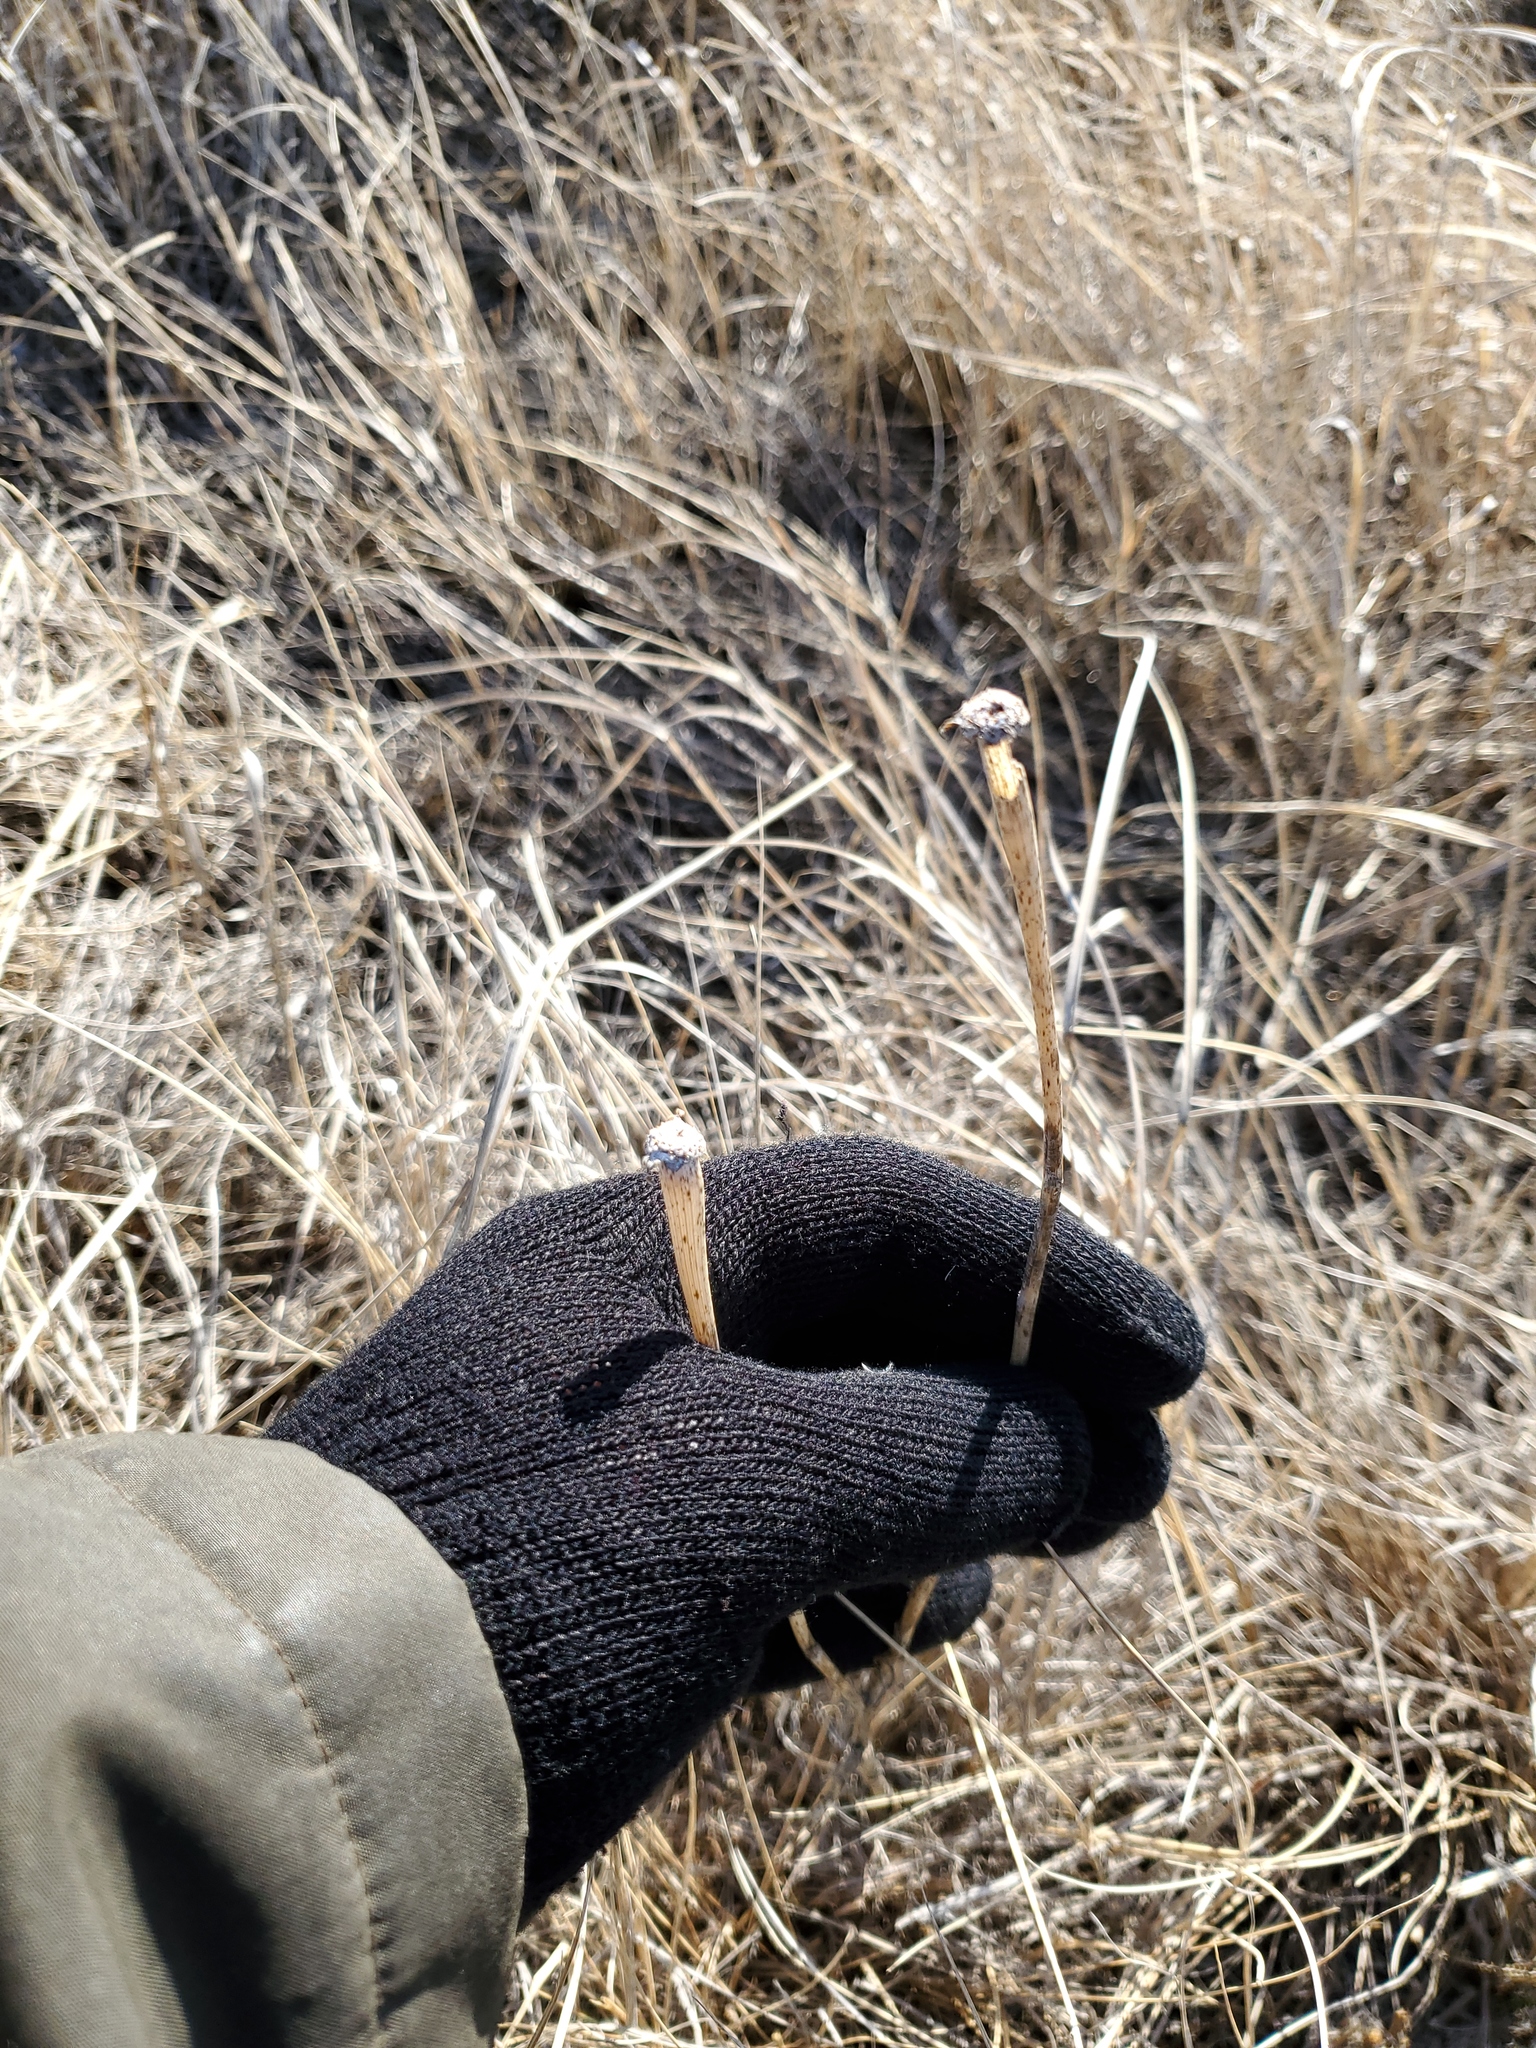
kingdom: Plantae
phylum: Tracheophyta
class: Magnoliopsida
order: Asterales
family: Asteraceae
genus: Tragopogon
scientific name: Tragopogon dubius
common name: Yellow salsify
